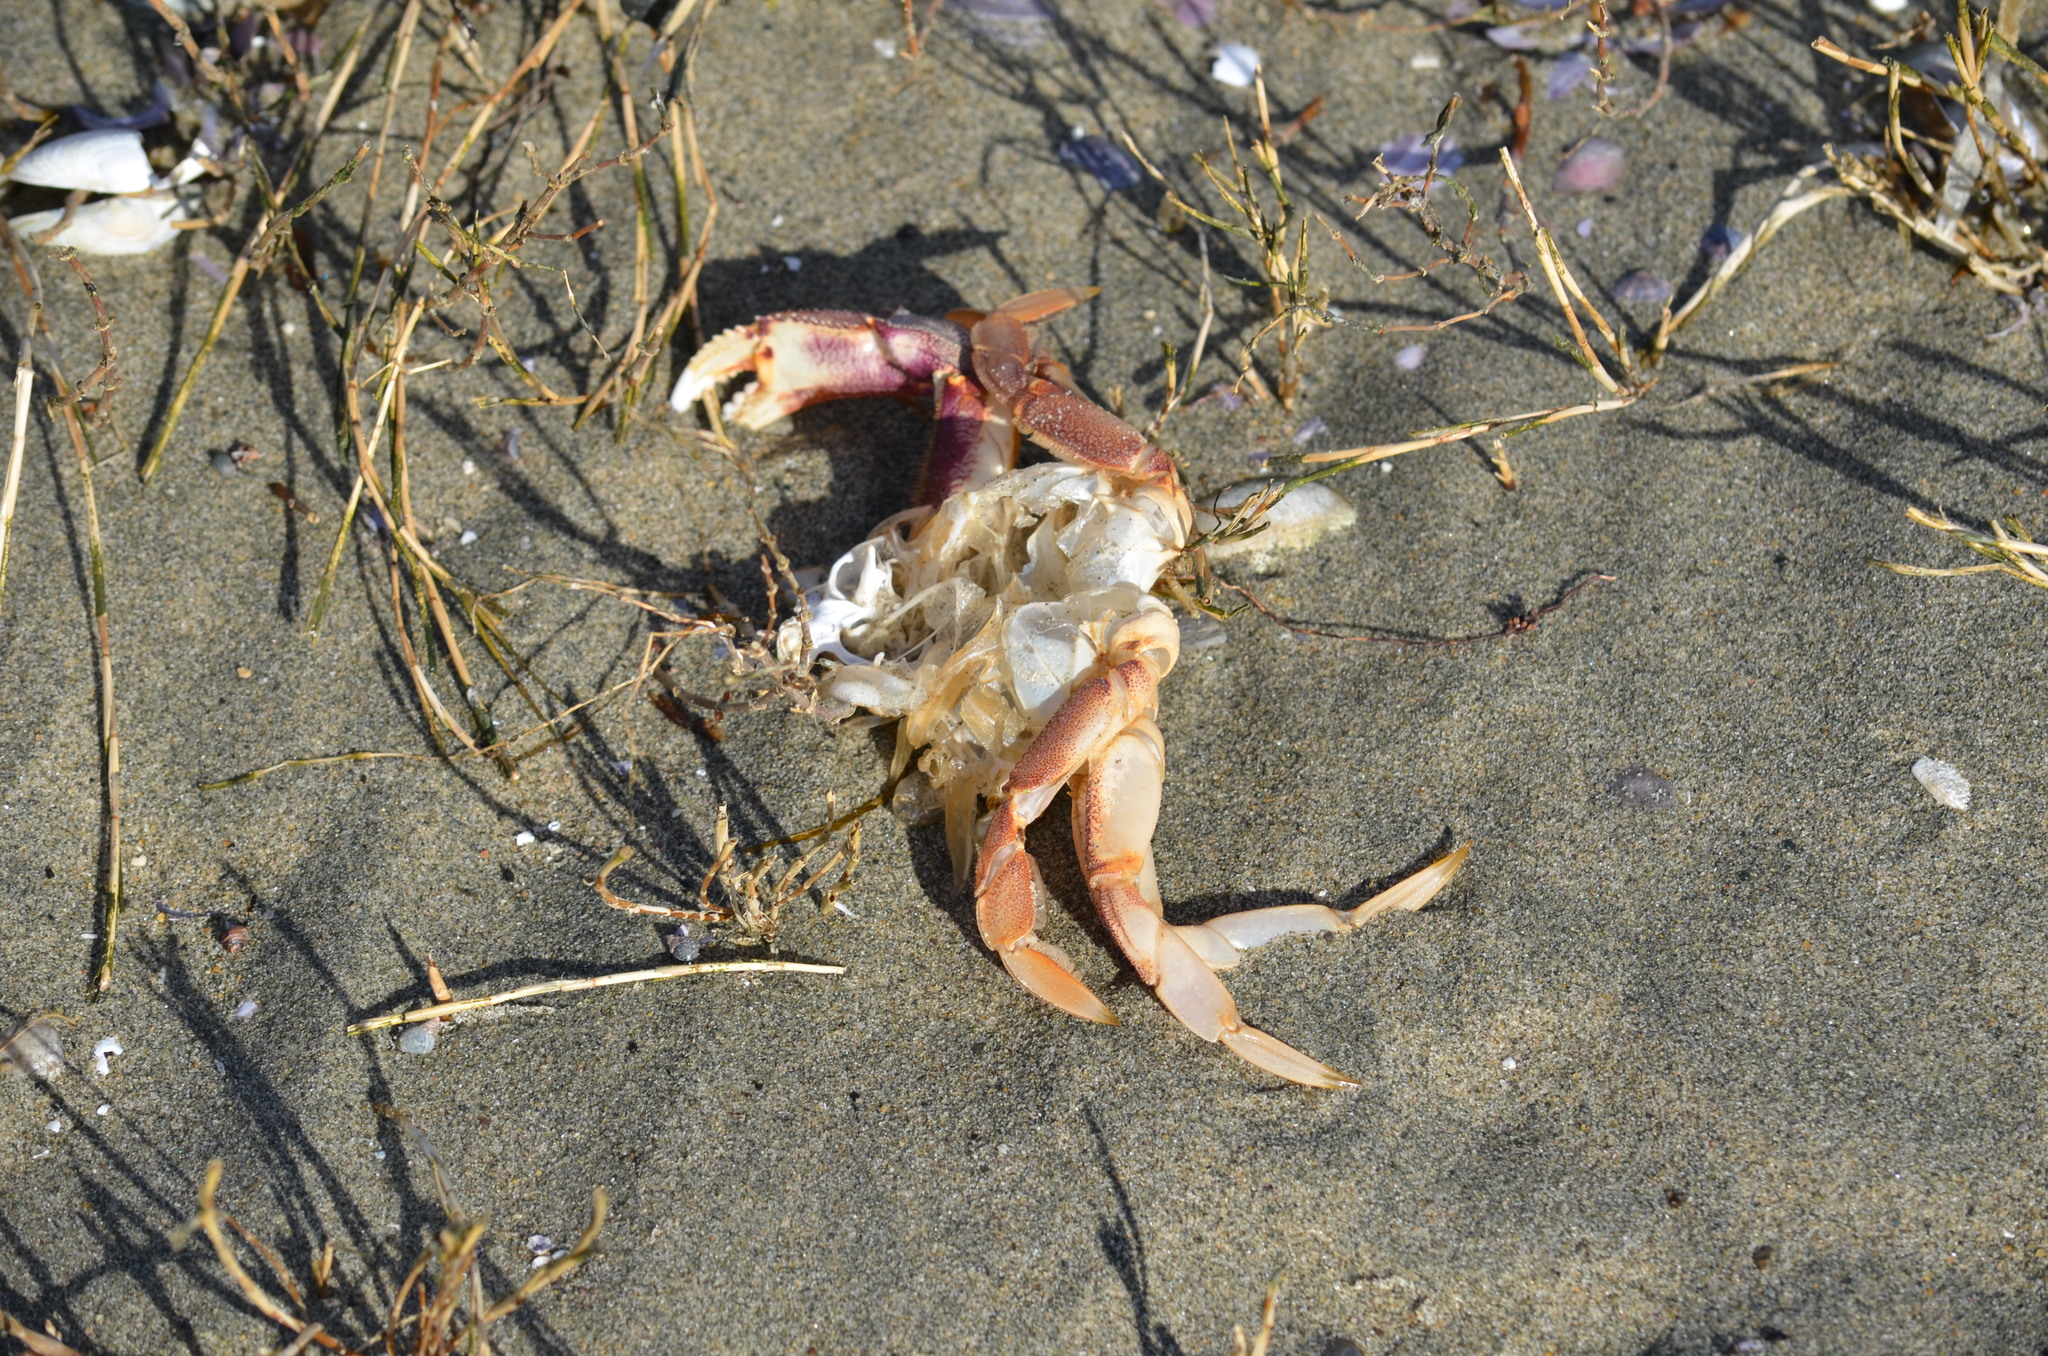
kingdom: Animalia
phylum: Arthropoda
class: Malacostraca
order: Decapoda
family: Cancridae
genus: Metacarcinus
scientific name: Metacarcinus magister
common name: Californian crab
